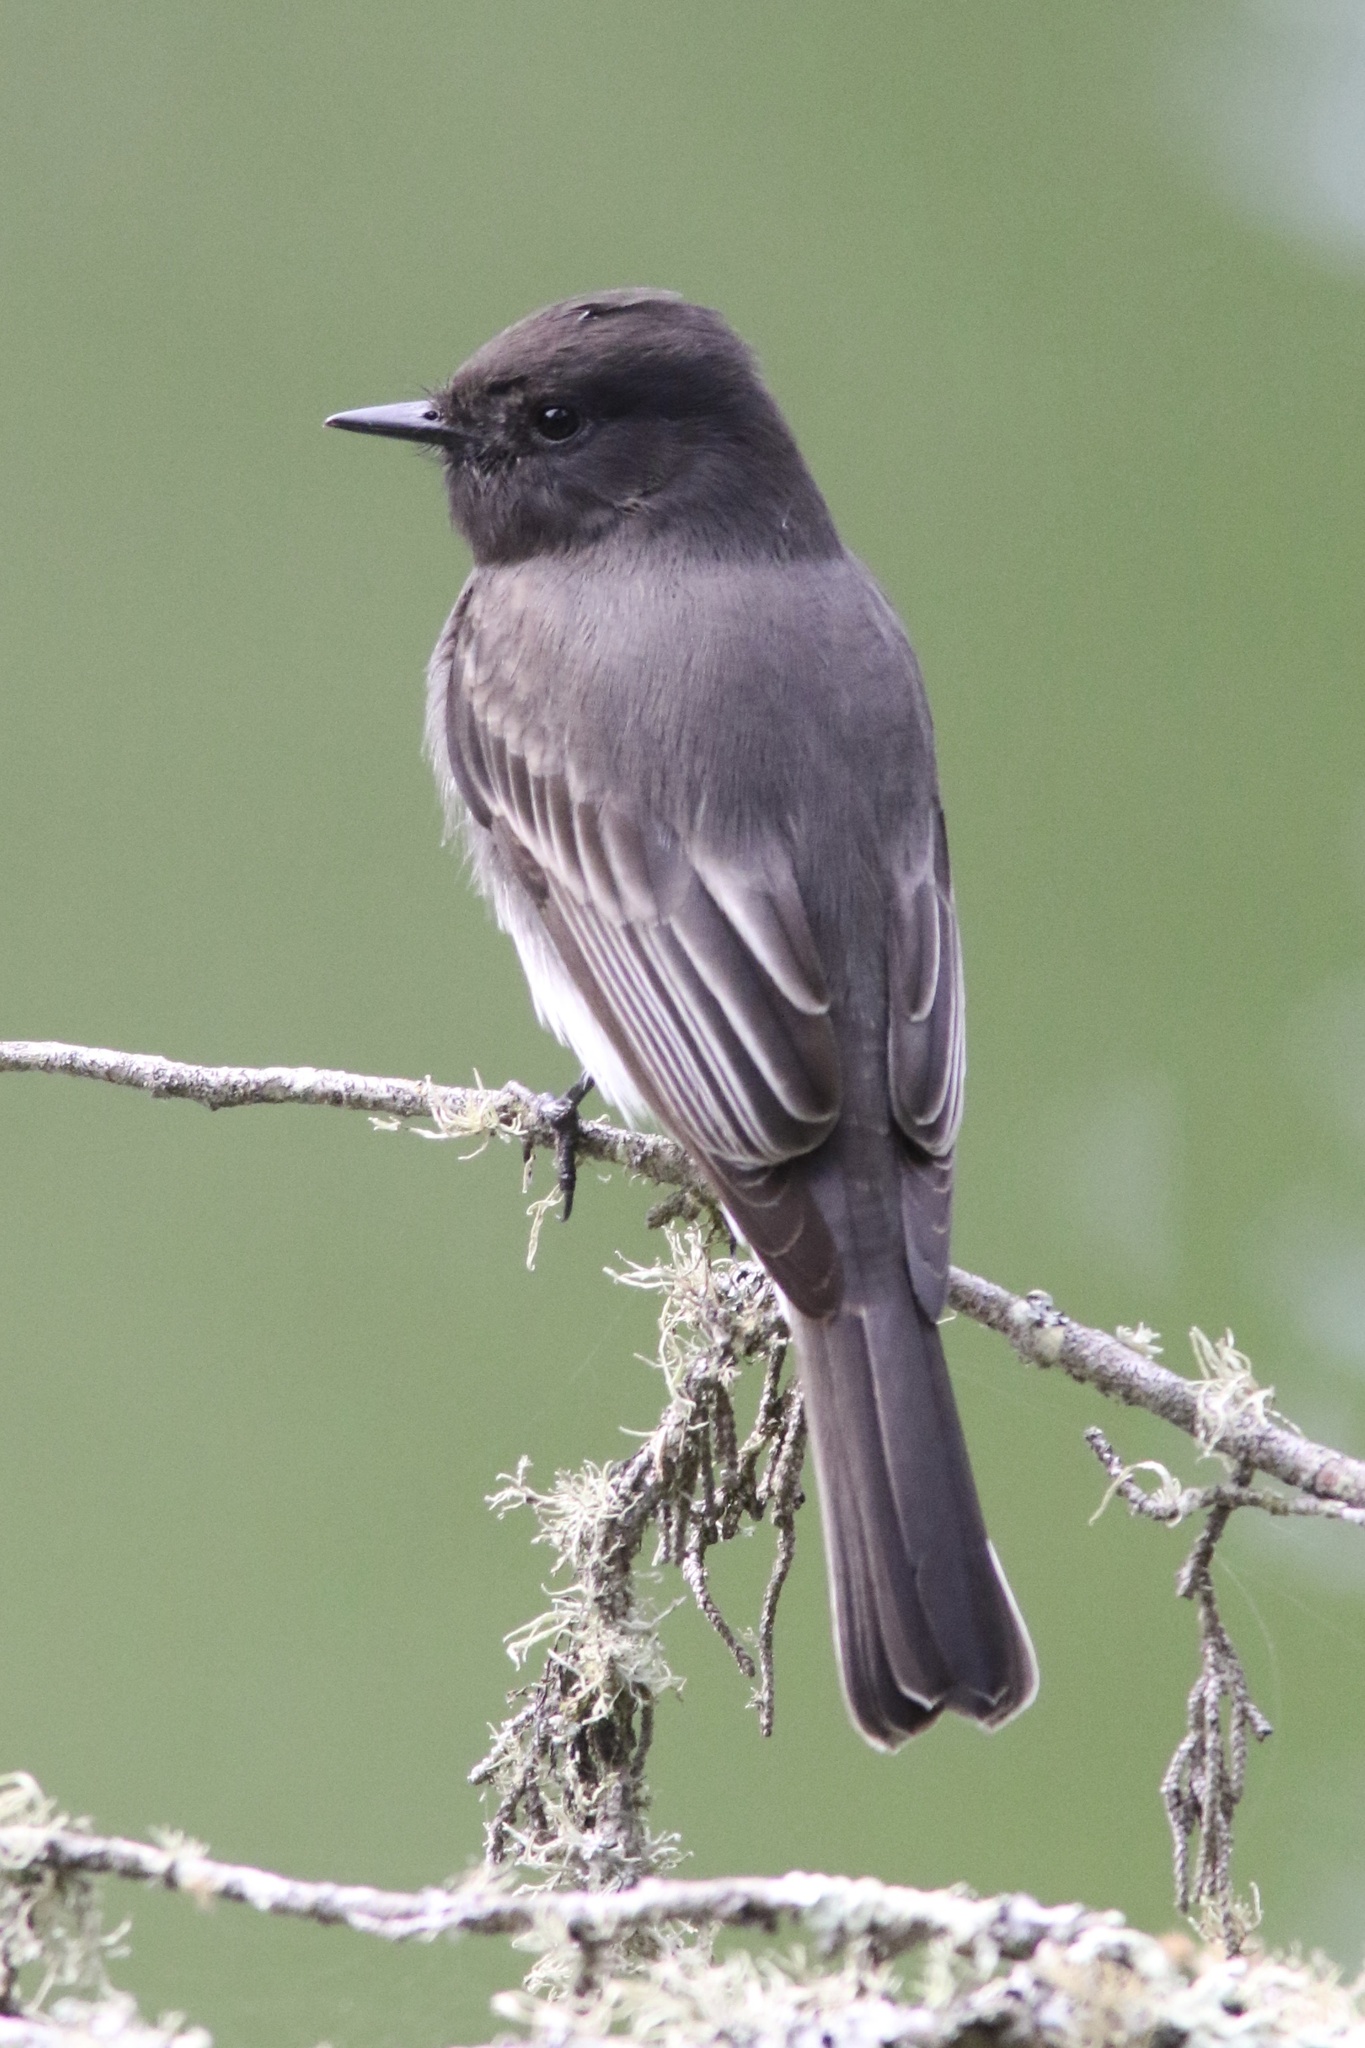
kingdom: Animalia
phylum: Chordata
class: Aves
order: Passeriformes
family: Tyrannidae
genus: Sayornis
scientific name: Sayornis nigricans
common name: Black phoebe
